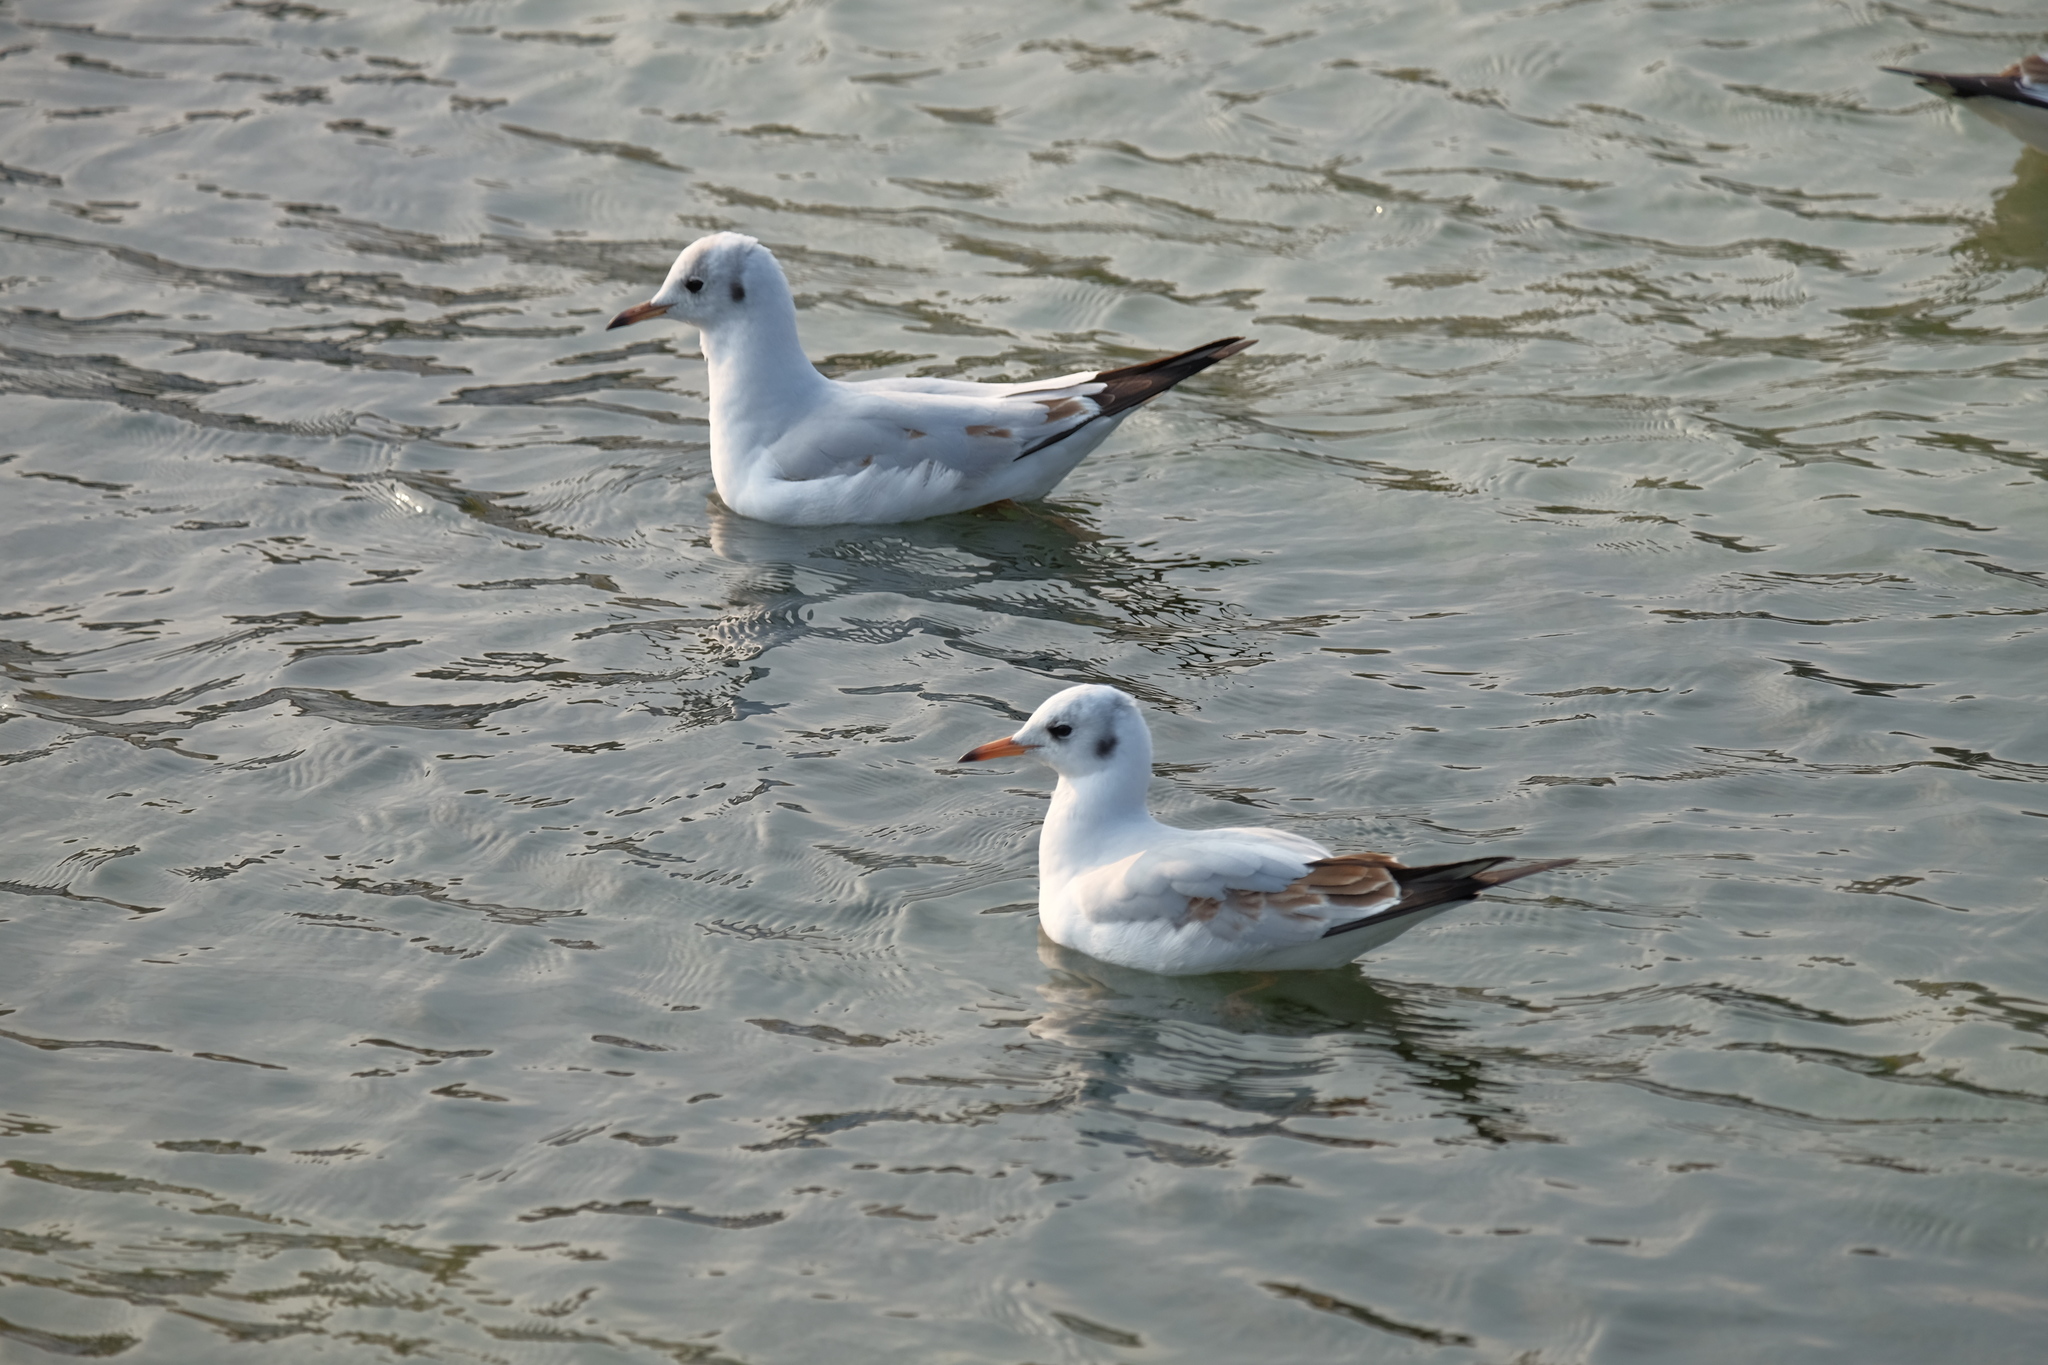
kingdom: Animalia
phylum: Chordata
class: Aves
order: Charadriiformes
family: Laridae
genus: Chroicocephalus
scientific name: Chroicocephalus ridibundus
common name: Black-headed gull
